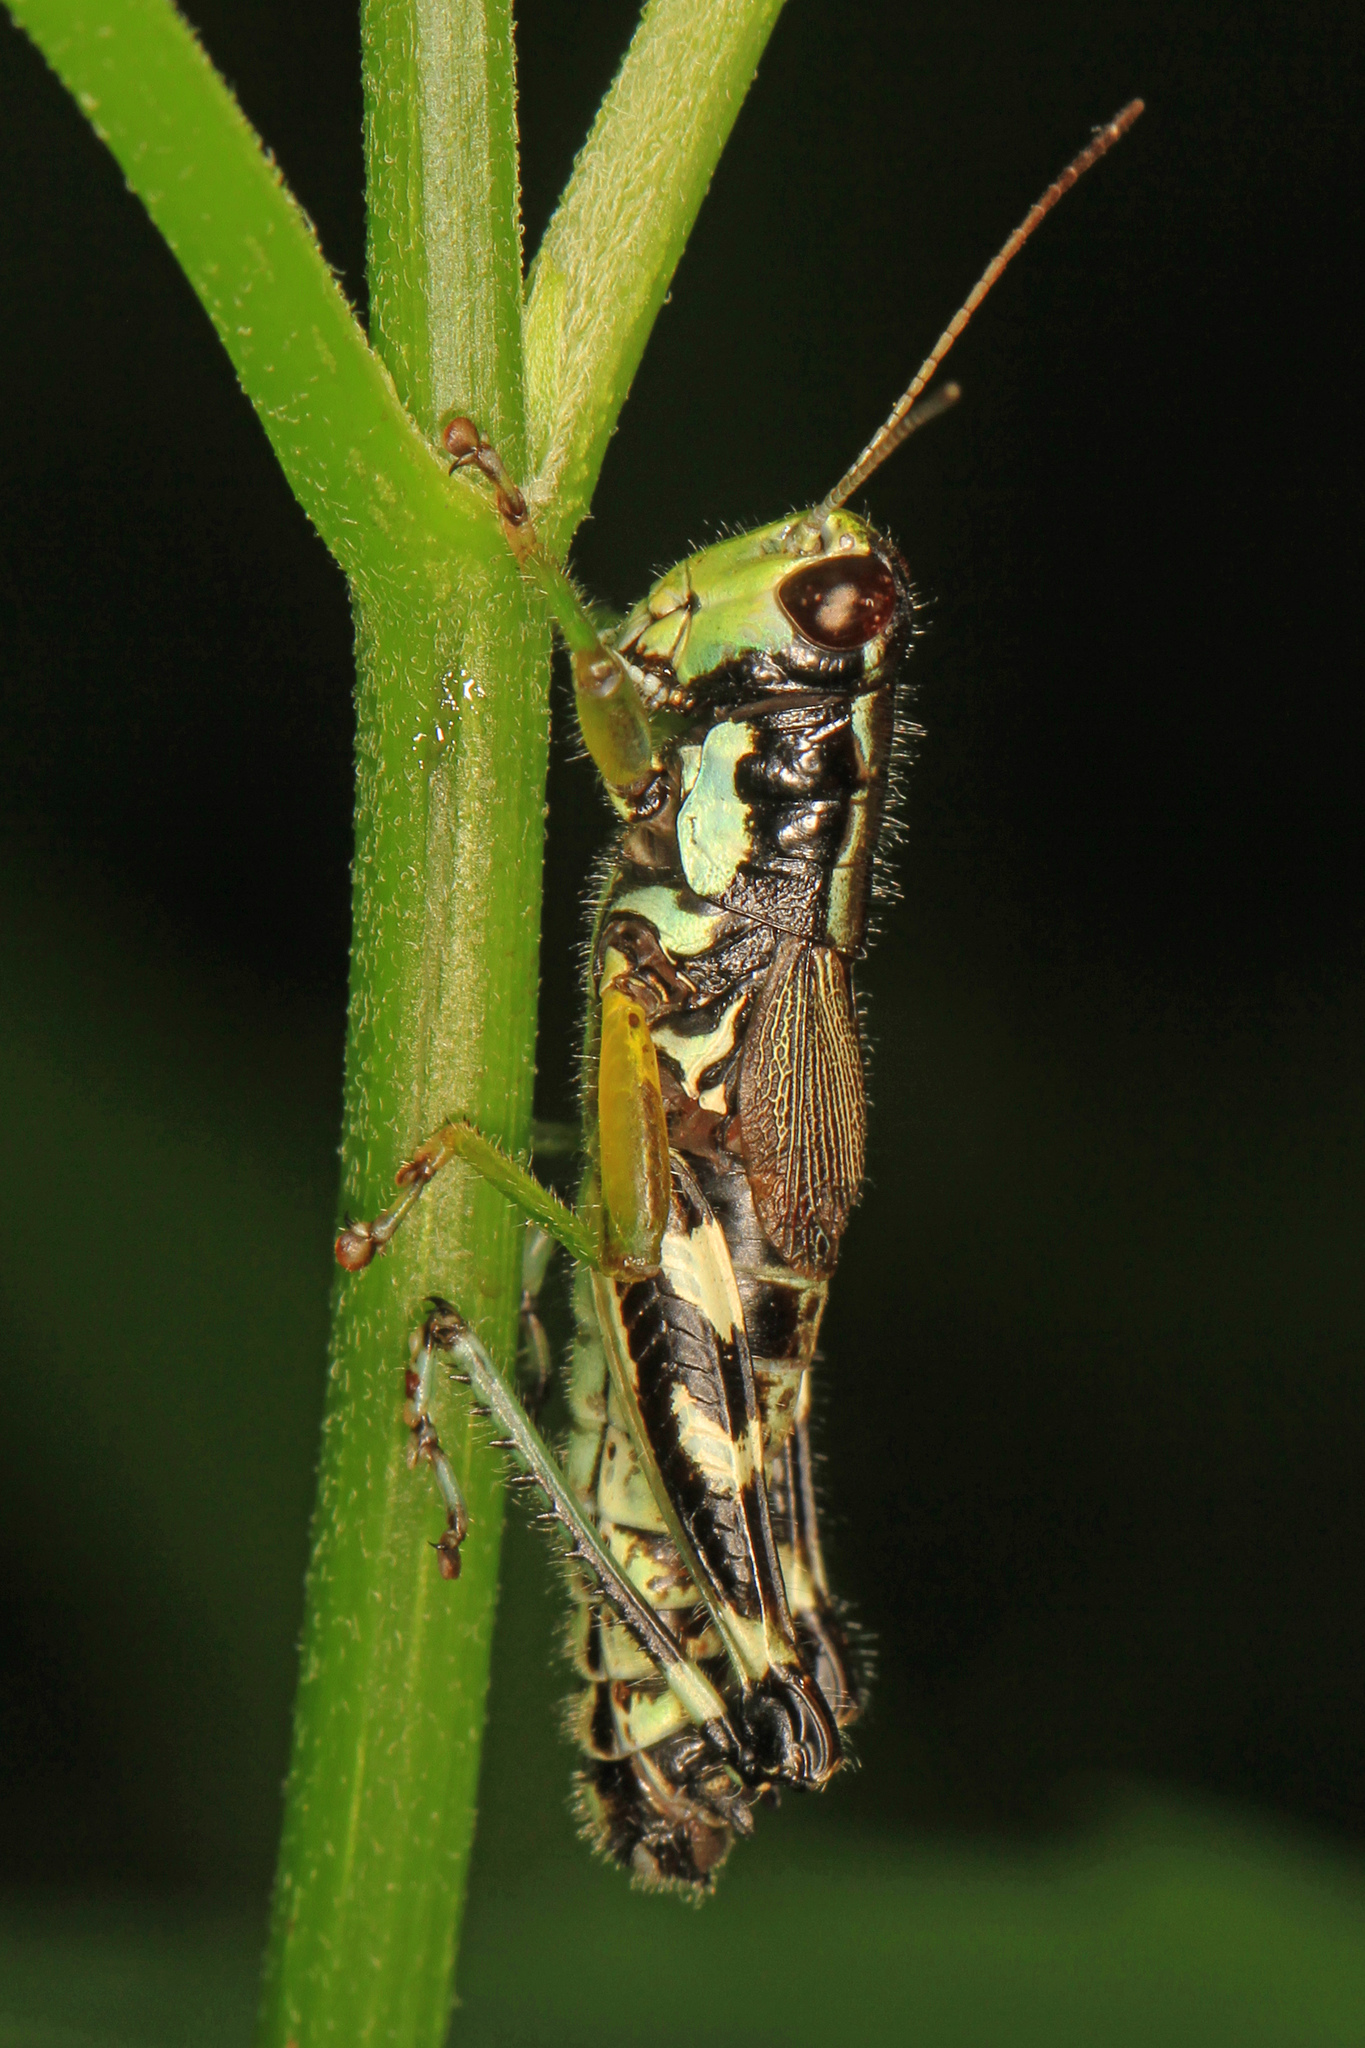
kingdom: Animalia
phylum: Arthropoda
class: Insecta
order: Orthoptera
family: Acrididae
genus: Melanoplus
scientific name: Melanoplus viridipes
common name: Green-legged locust
